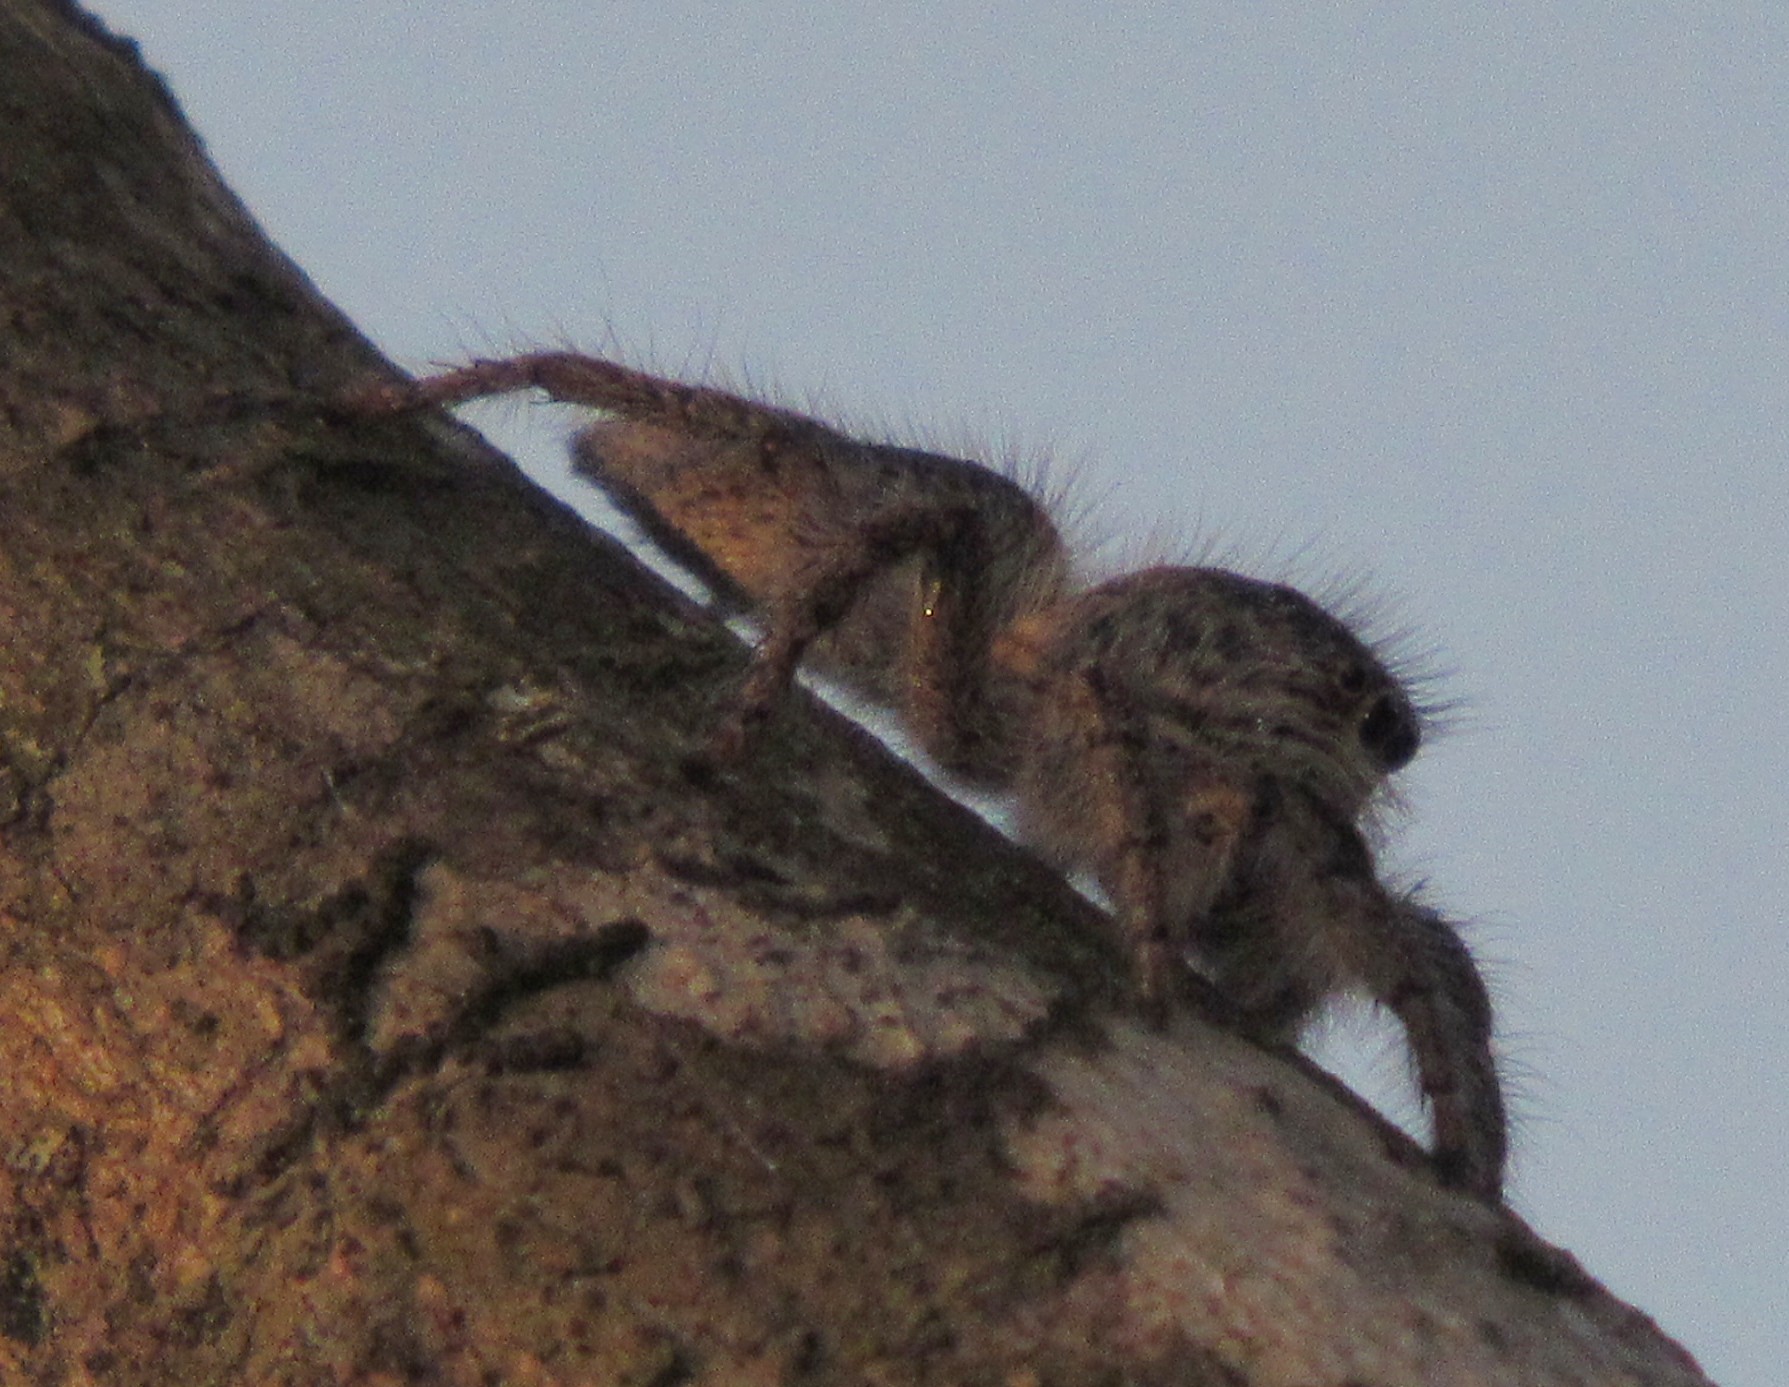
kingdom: Animalia
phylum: Arthropoda
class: Arachnida
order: Araneae
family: Salticidae
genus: Megafreya
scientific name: Megafreya sutrix
